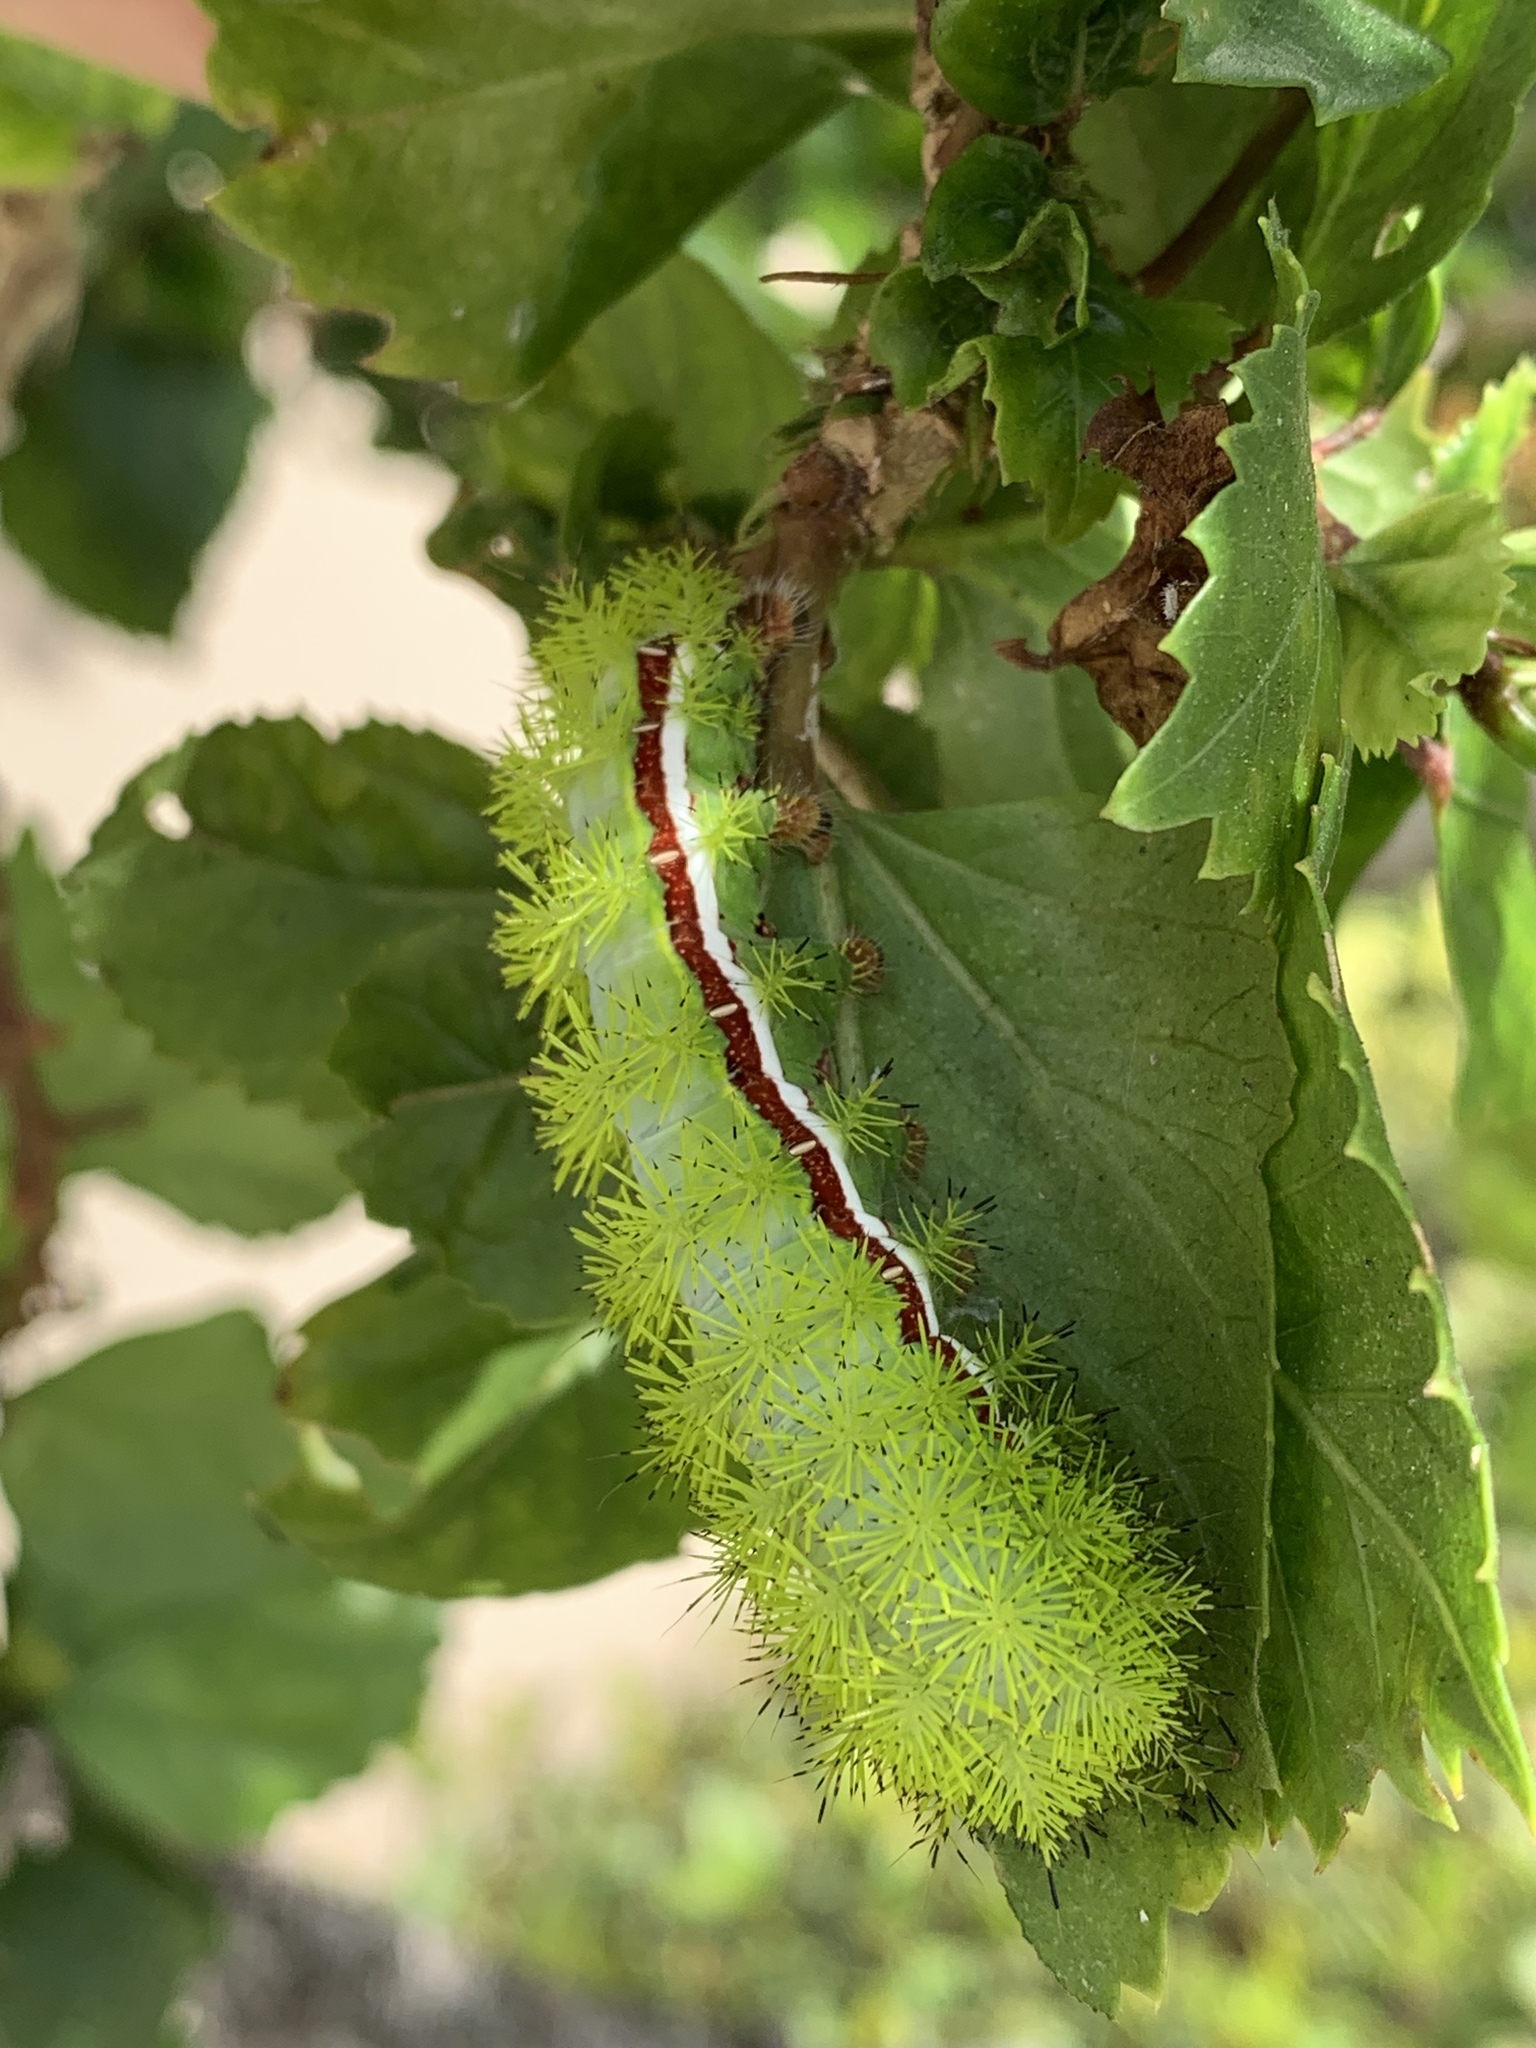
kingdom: Animalia
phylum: Arthropoda
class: Insecta
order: Lepidoptera
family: Saturniidae
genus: Automeris
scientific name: Automeris io
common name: Io moth
